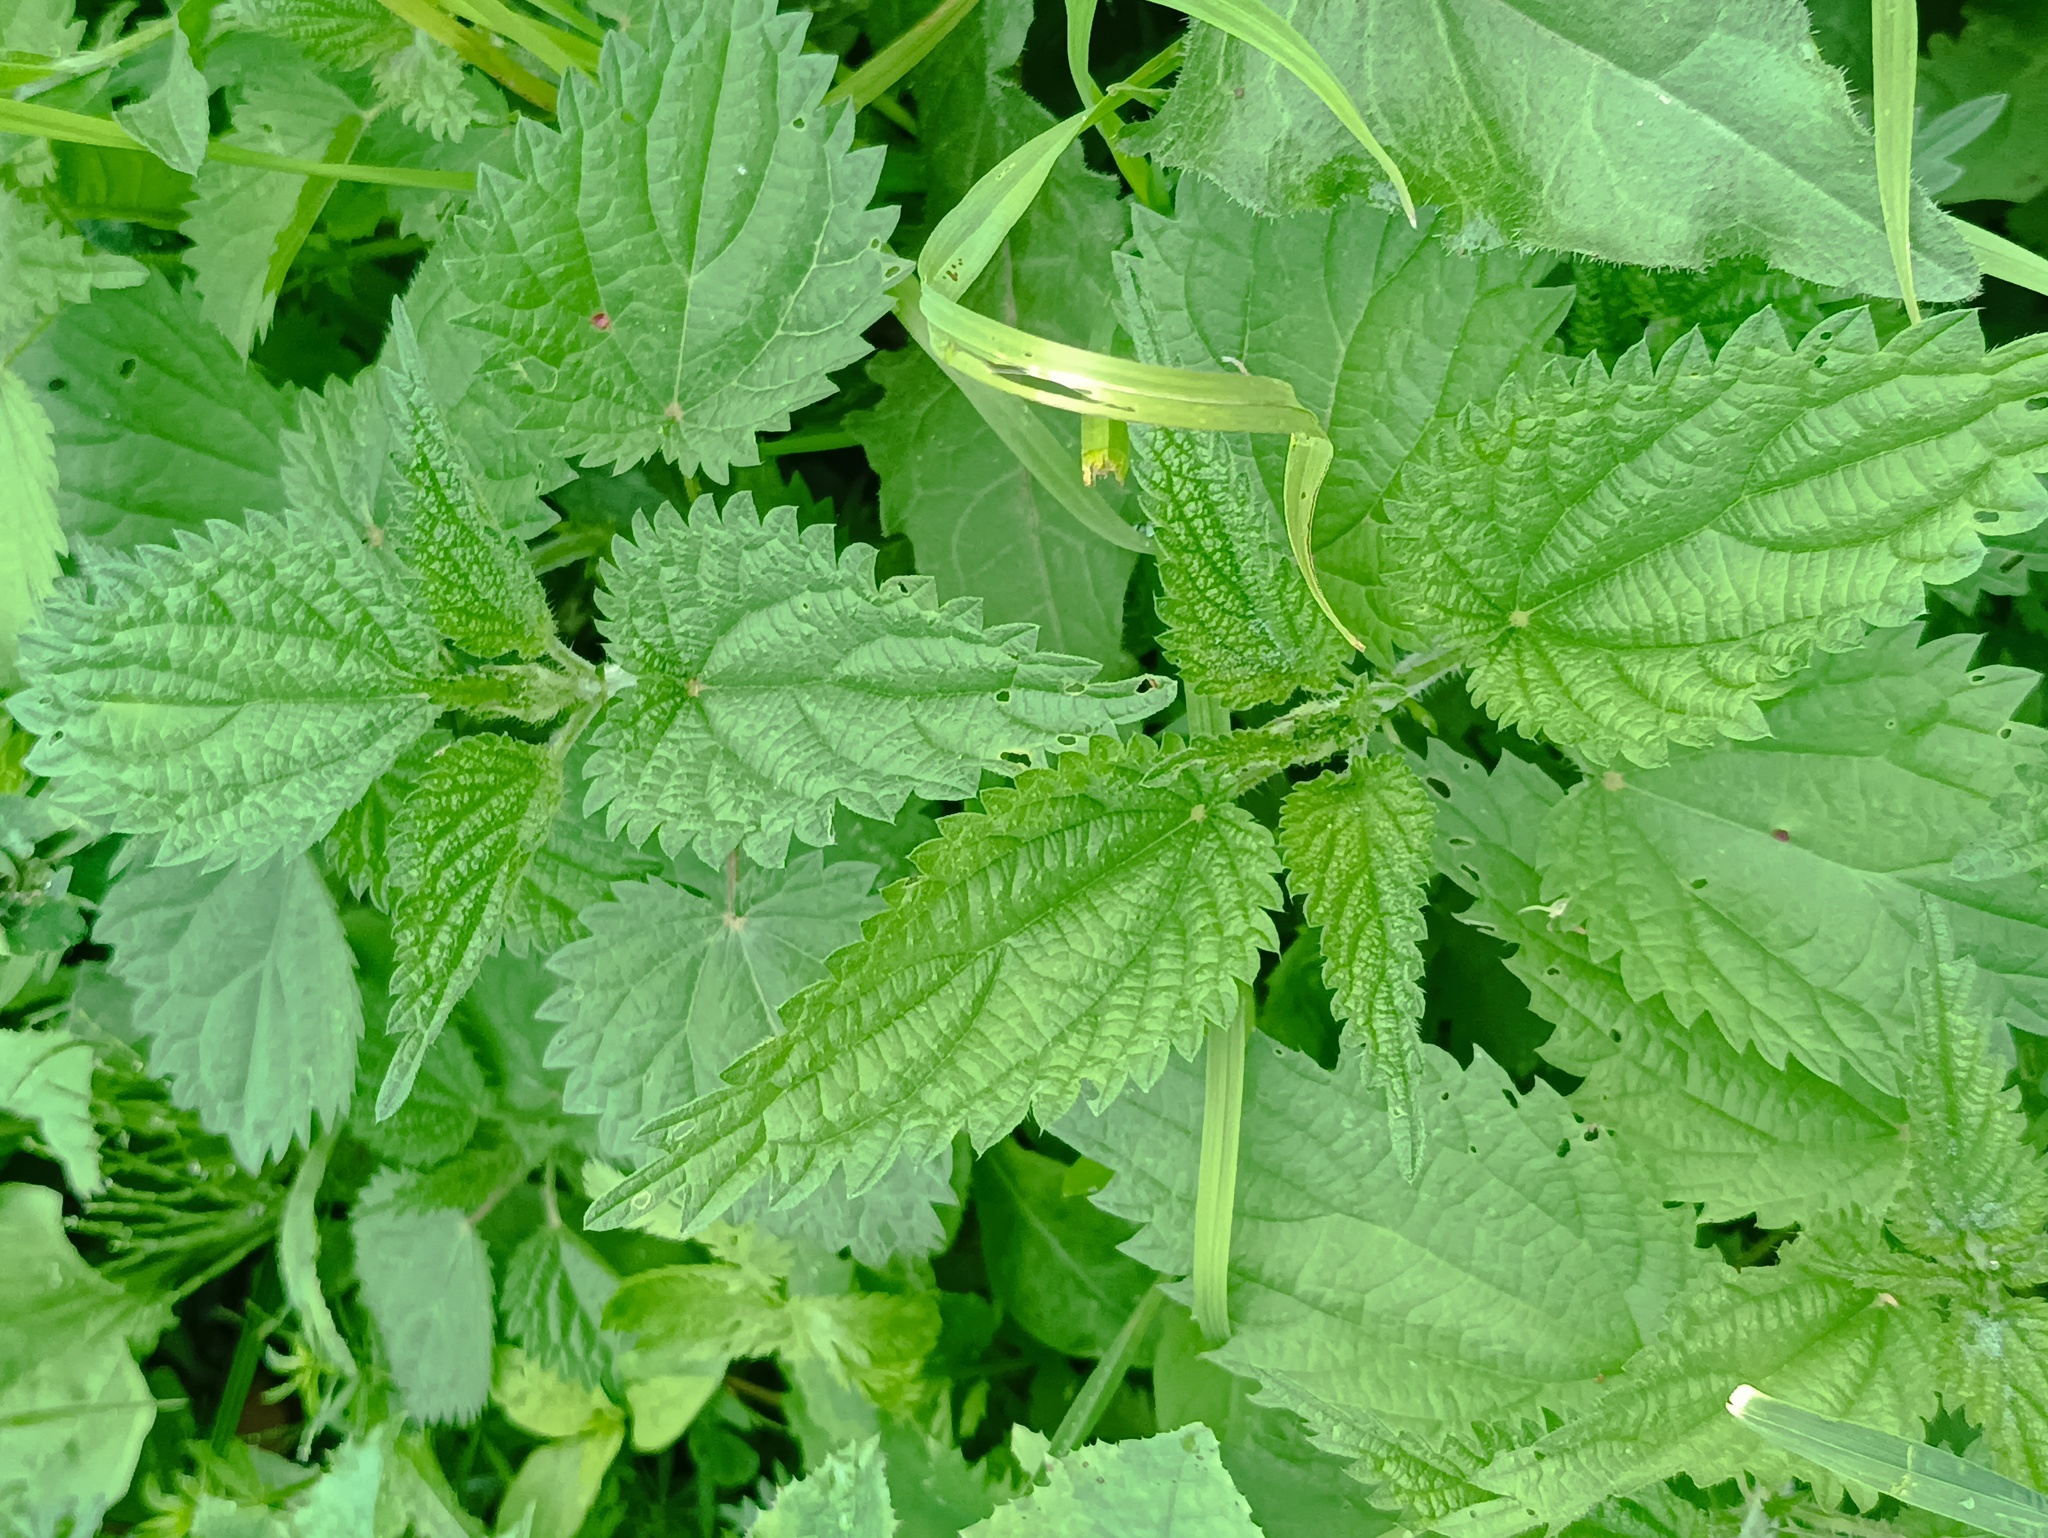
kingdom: Plantae
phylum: Tracheophyta
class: Magnoliopsida
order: Rosales
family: Urticaceae
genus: Urtica
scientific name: Urtica dioica
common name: Common nettle
